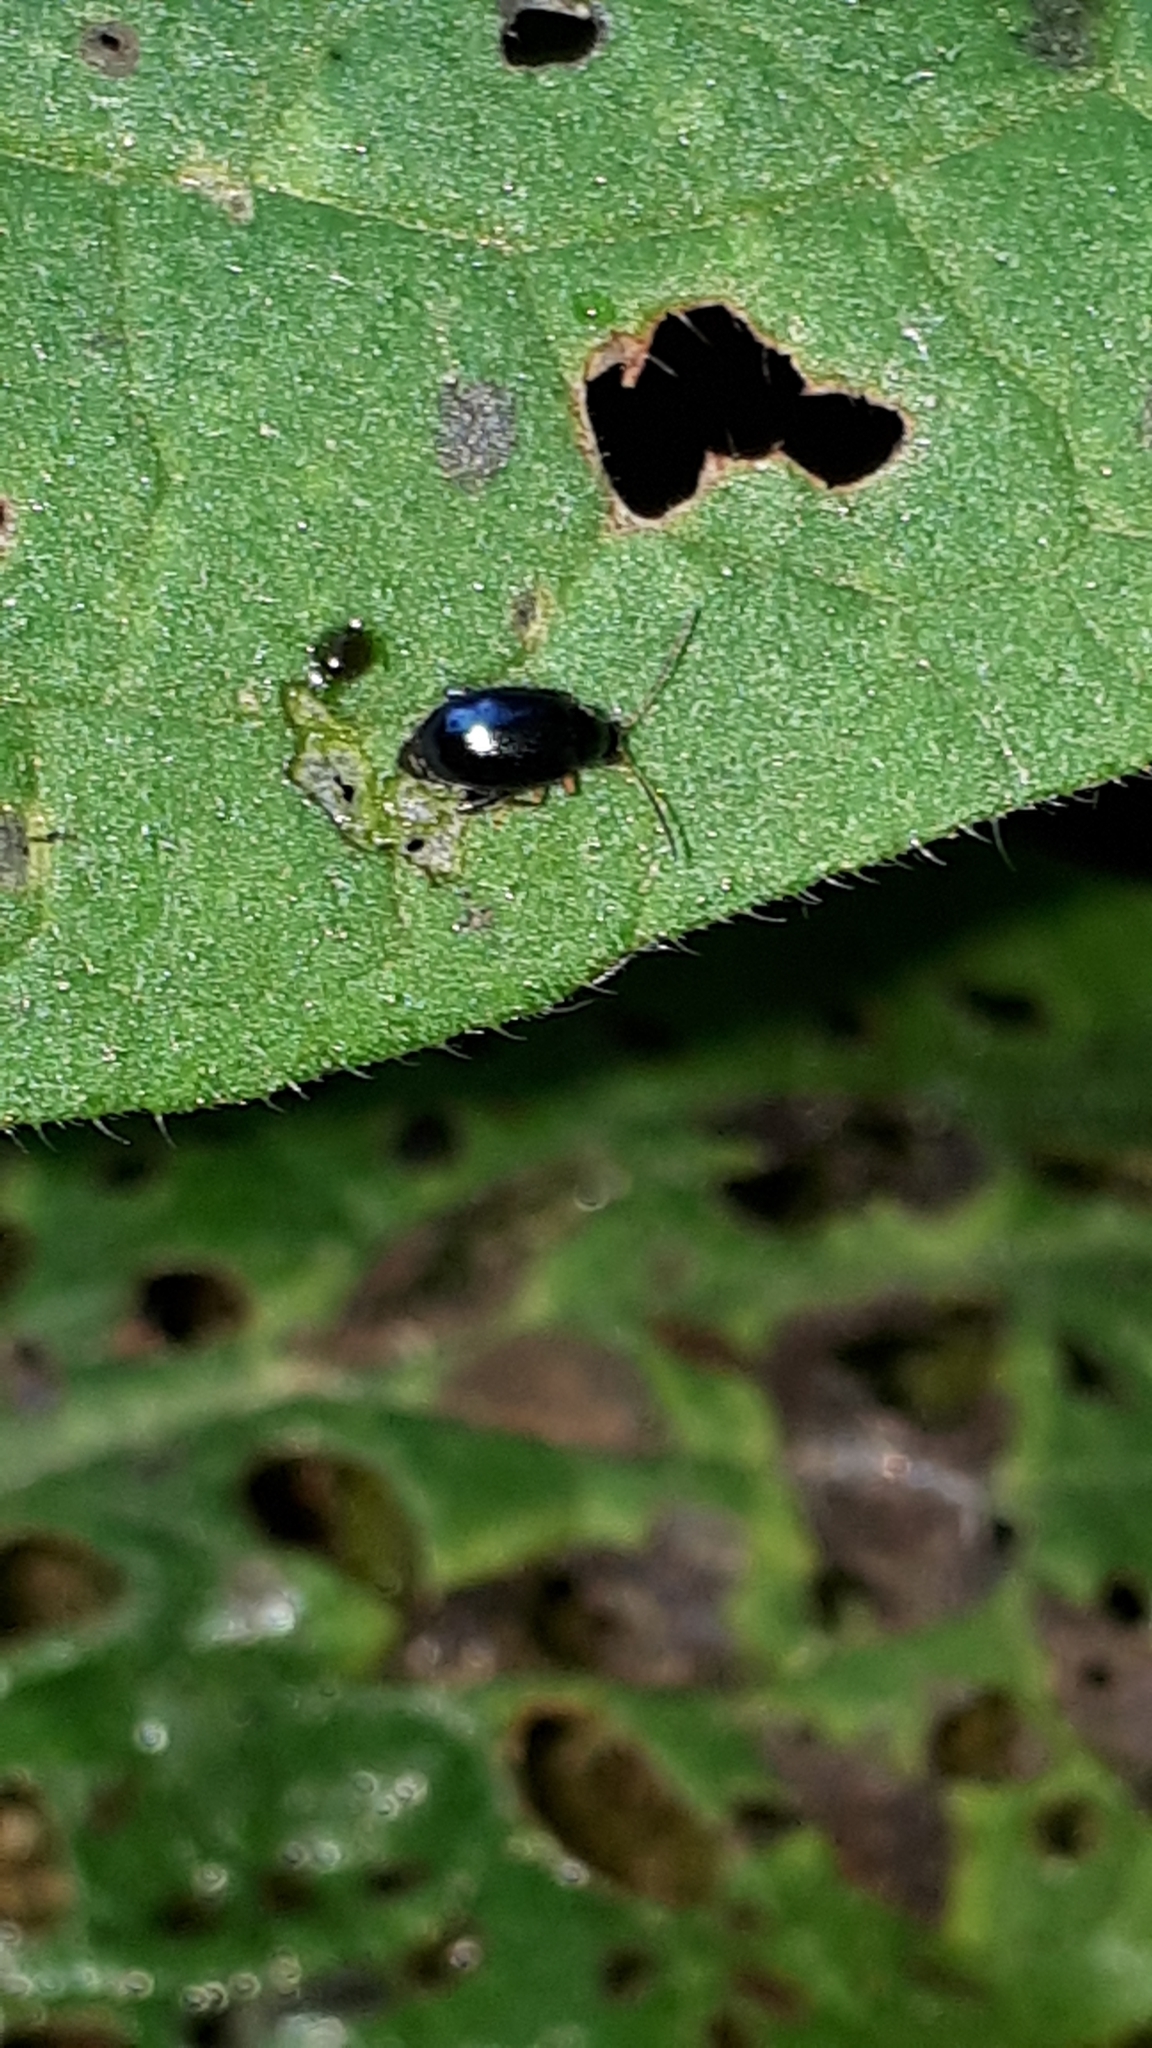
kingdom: Animalia
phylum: Arthropoda
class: Insecta
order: Coleoptera
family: Chrysomelidae
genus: Longitarsus
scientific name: Longitarsus linnaei
